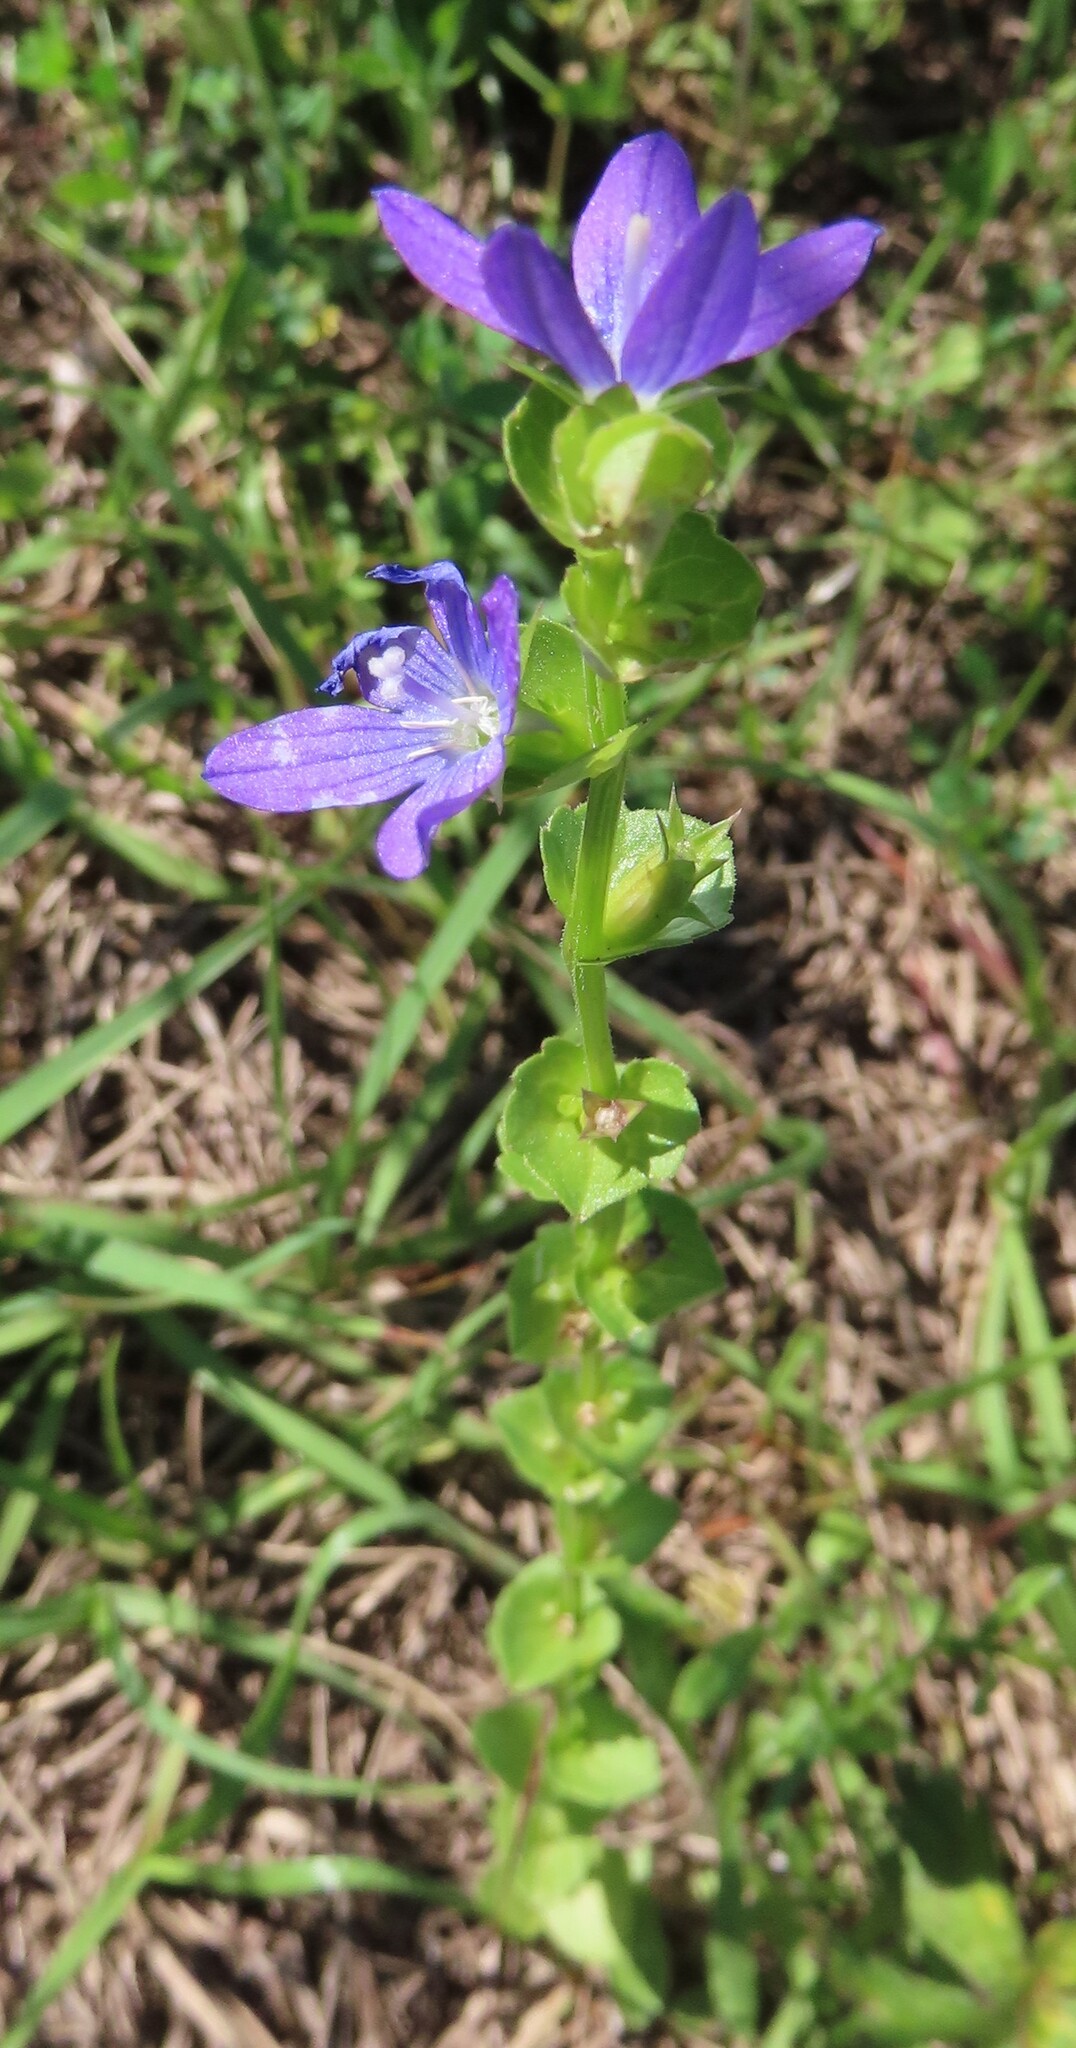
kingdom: Plantae
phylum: Tracheophyta
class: Magnoliopsida
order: Asterales
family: Campanulaceae
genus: Triodanis
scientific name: Triodanis perfoliata
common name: Clasping venus' looking-glass
